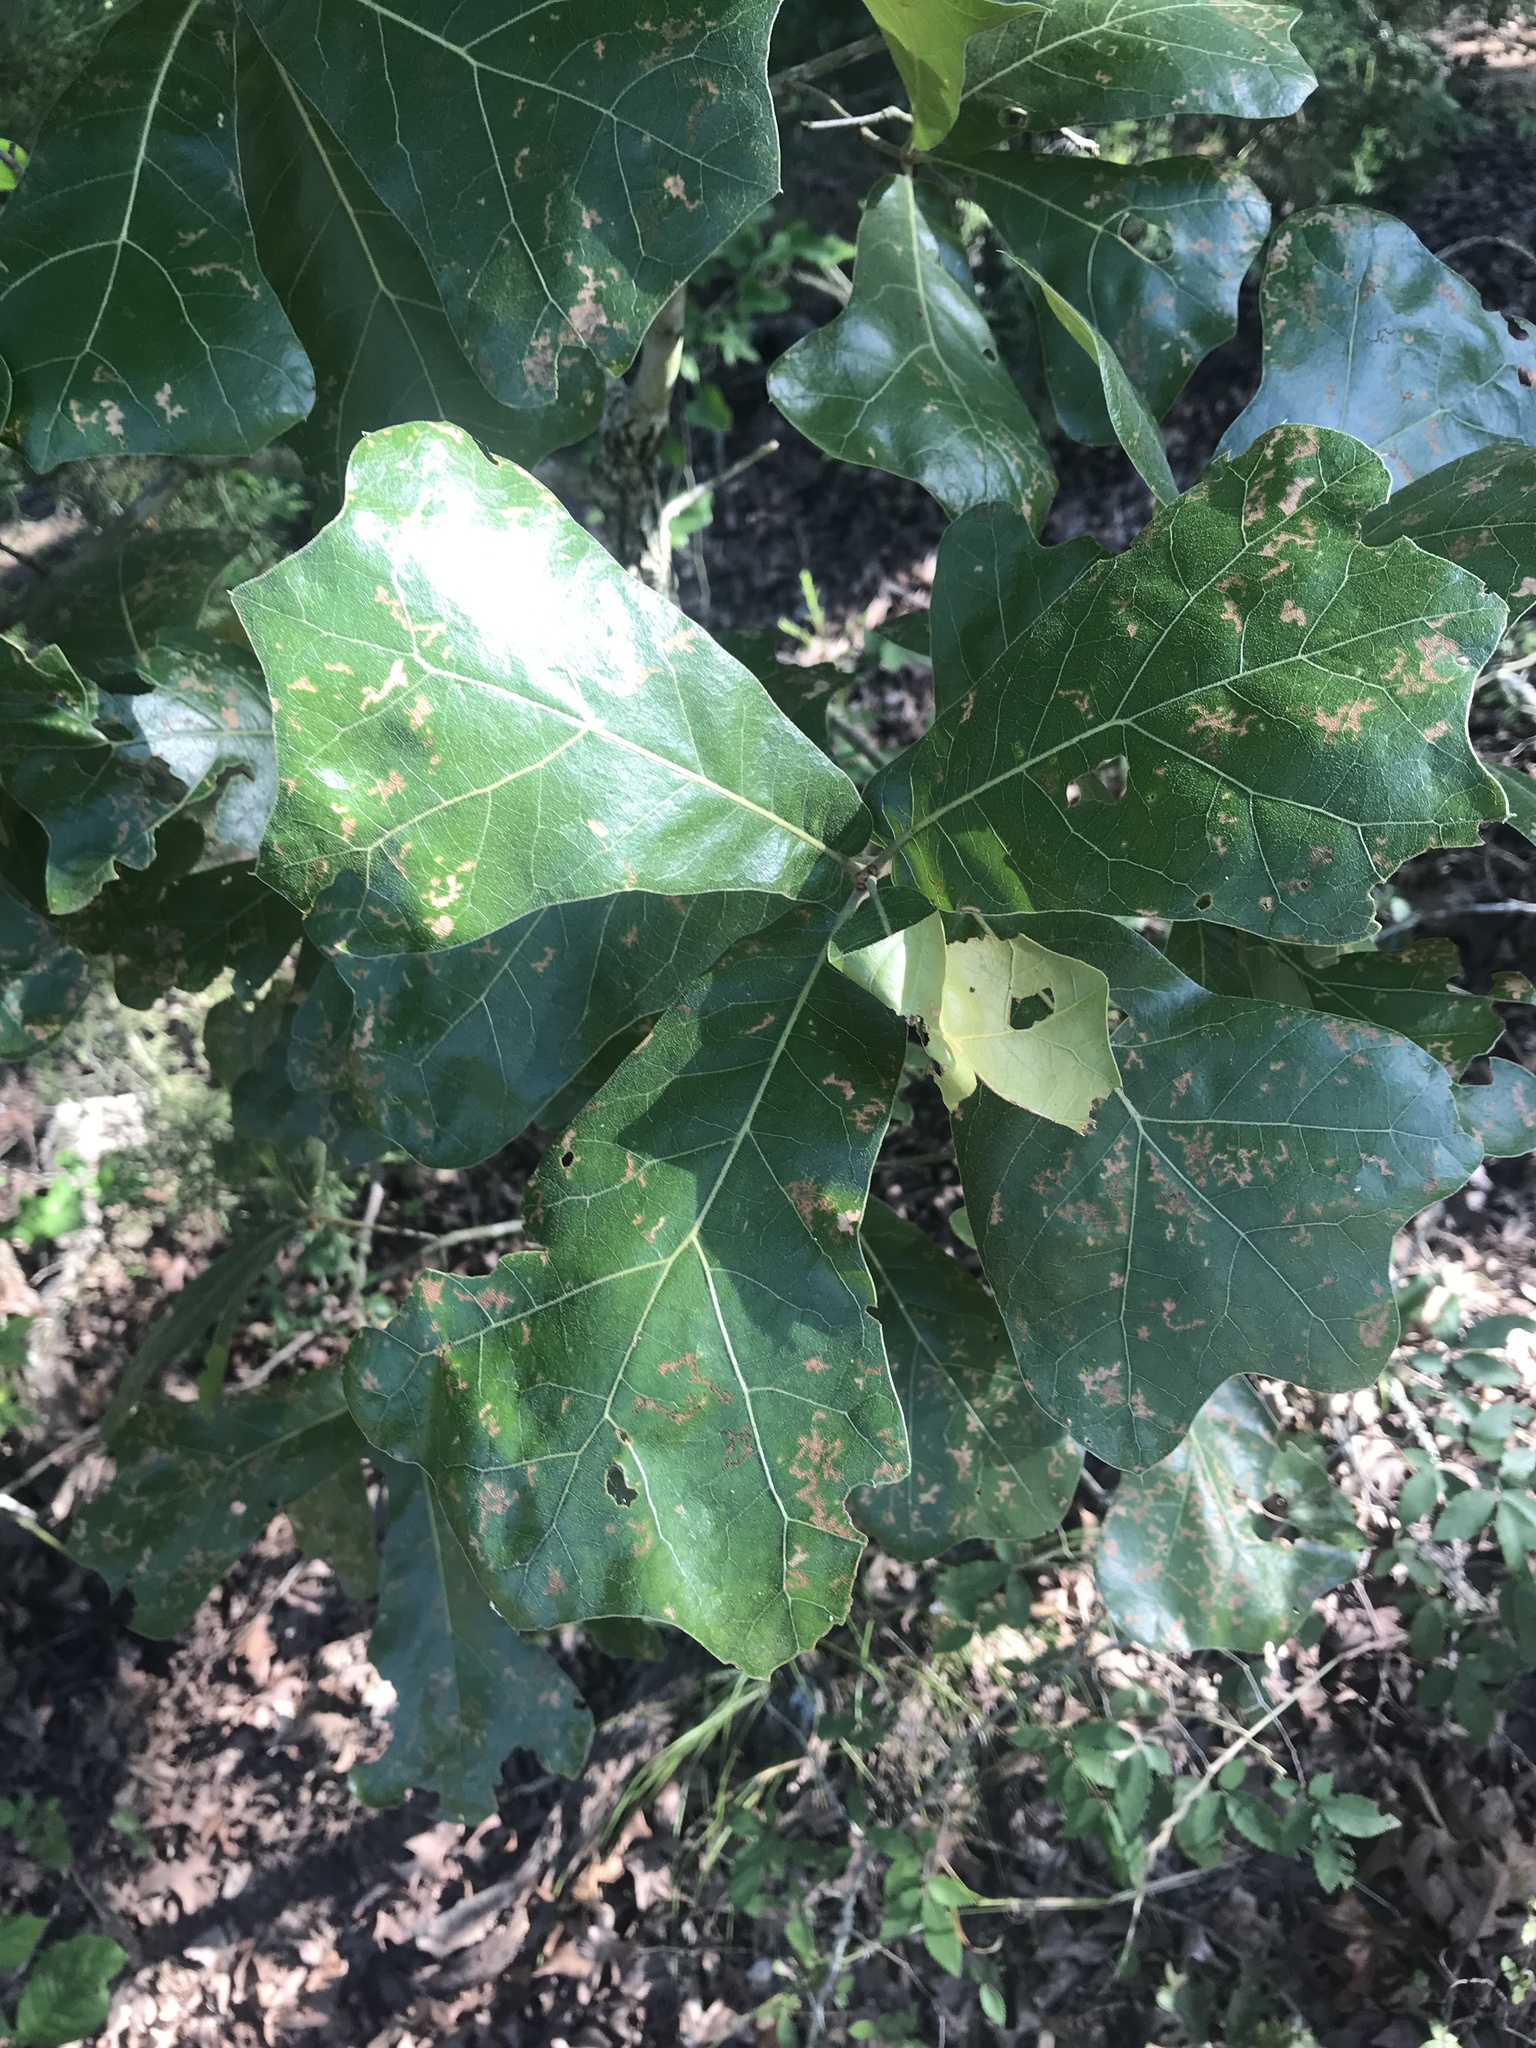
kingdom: Plantae
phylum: Tracheophyta
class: Magnoliopsida
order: Fagales
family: Fagaceae
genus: Quercus
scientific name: Quercus marilandica
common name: Blackjack oak
